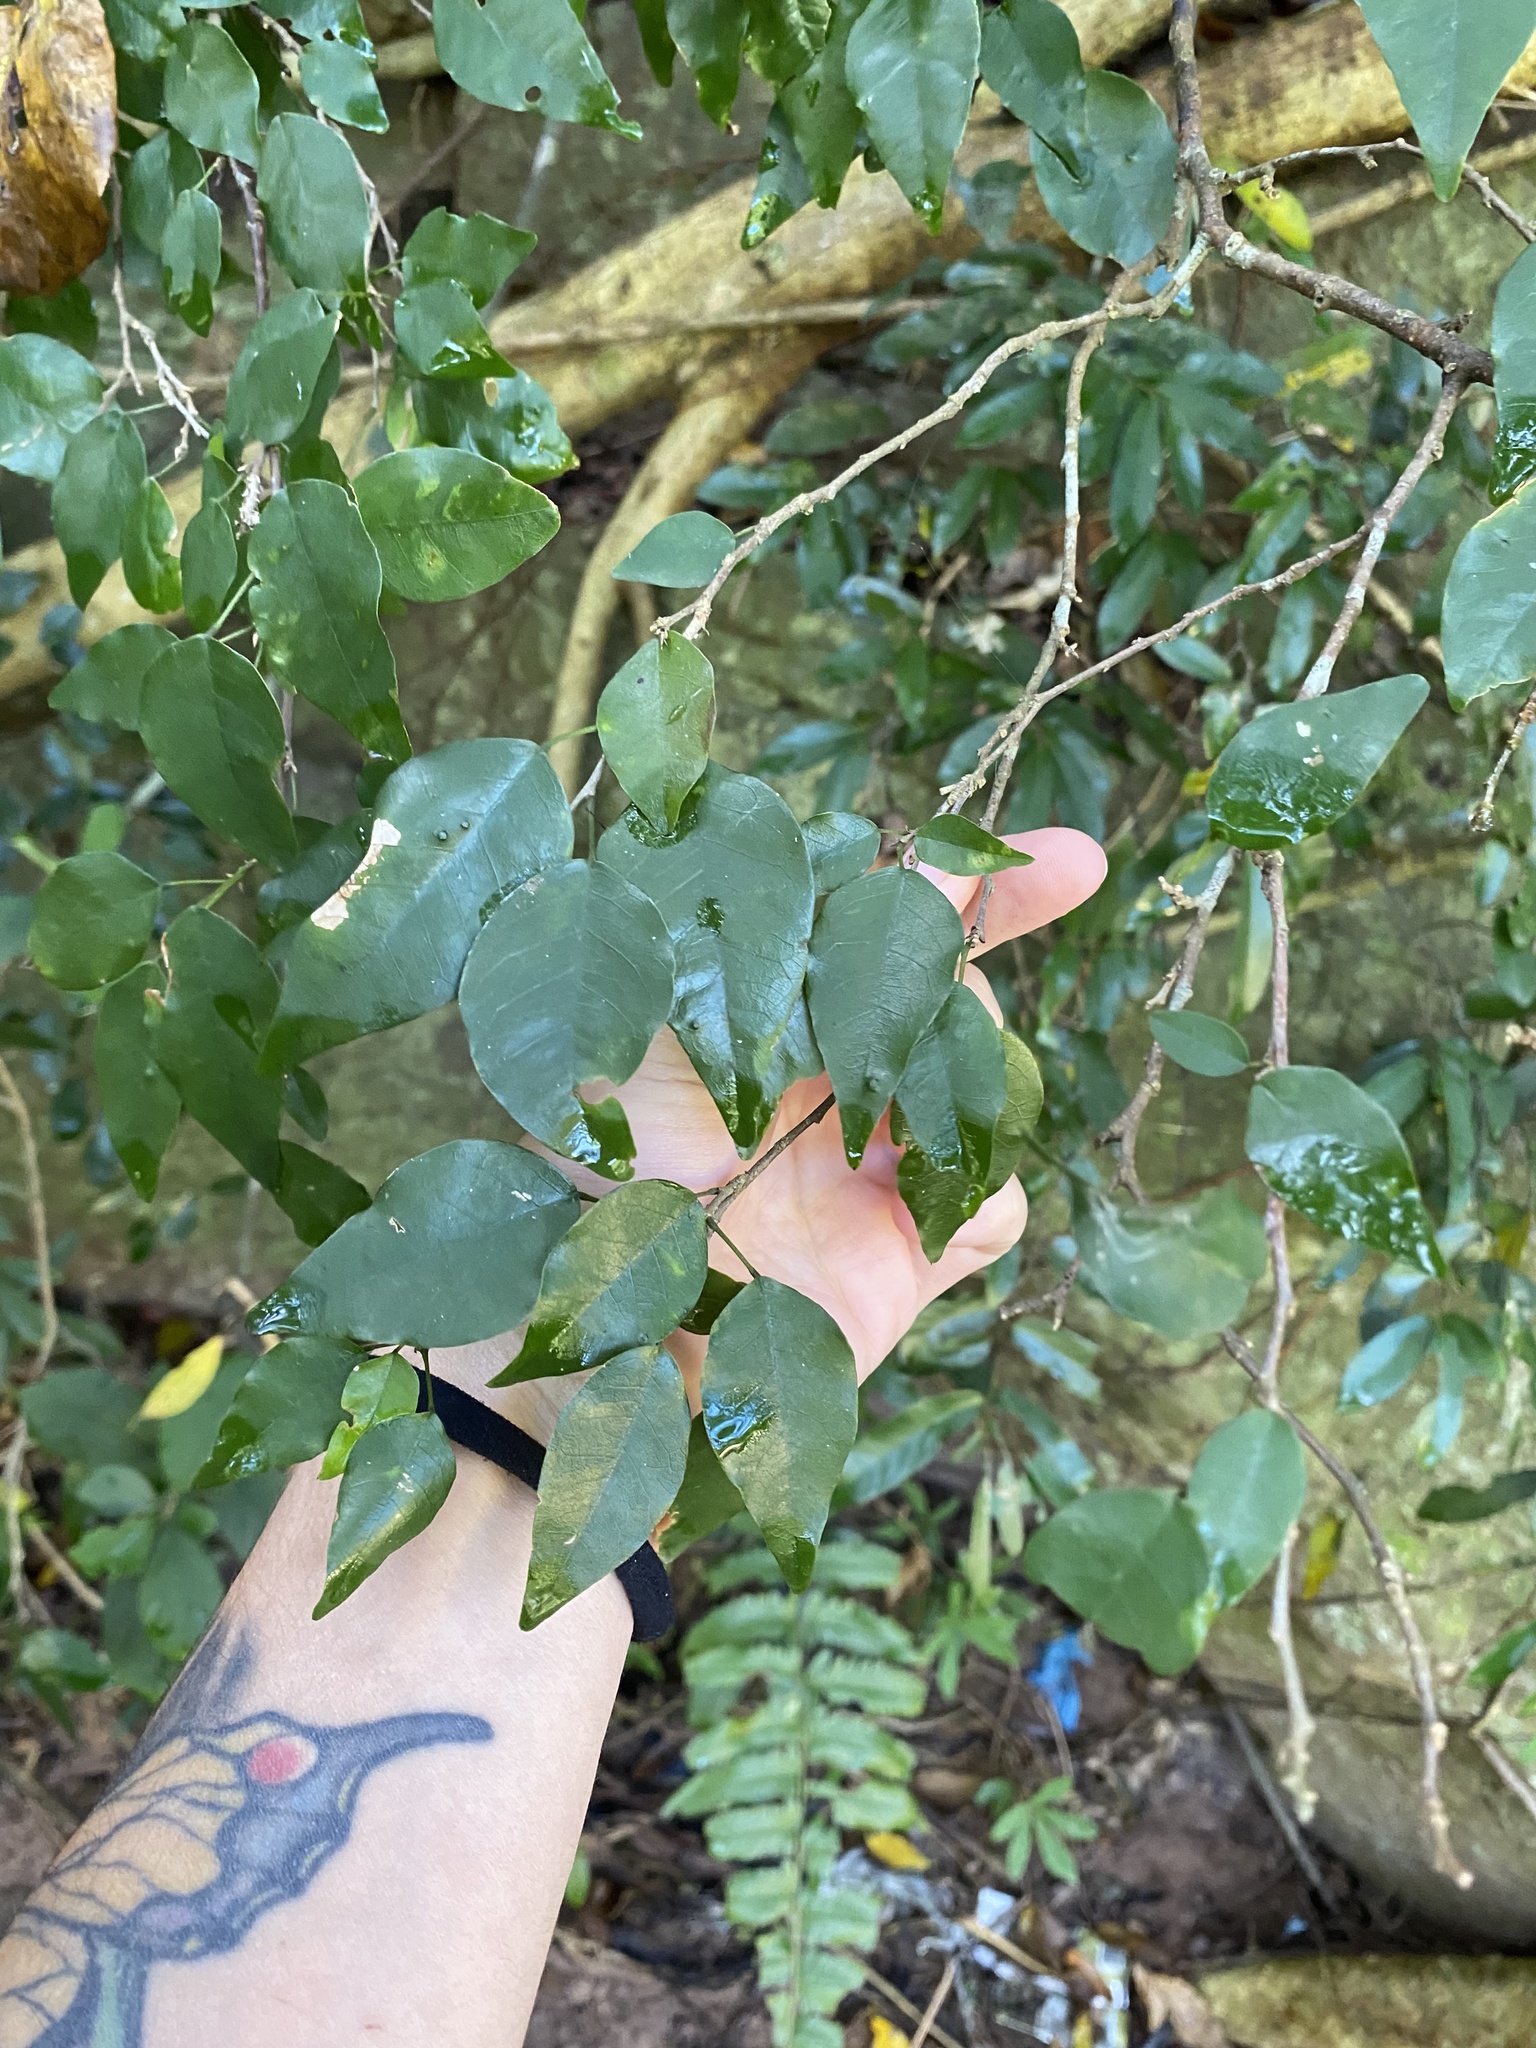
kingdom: Plantae
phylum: Tracheophyta
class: Magnoliopsida
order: Fabales
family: Fabaceae
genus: Bracteolaria
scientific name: Bracteolaria racemosa
